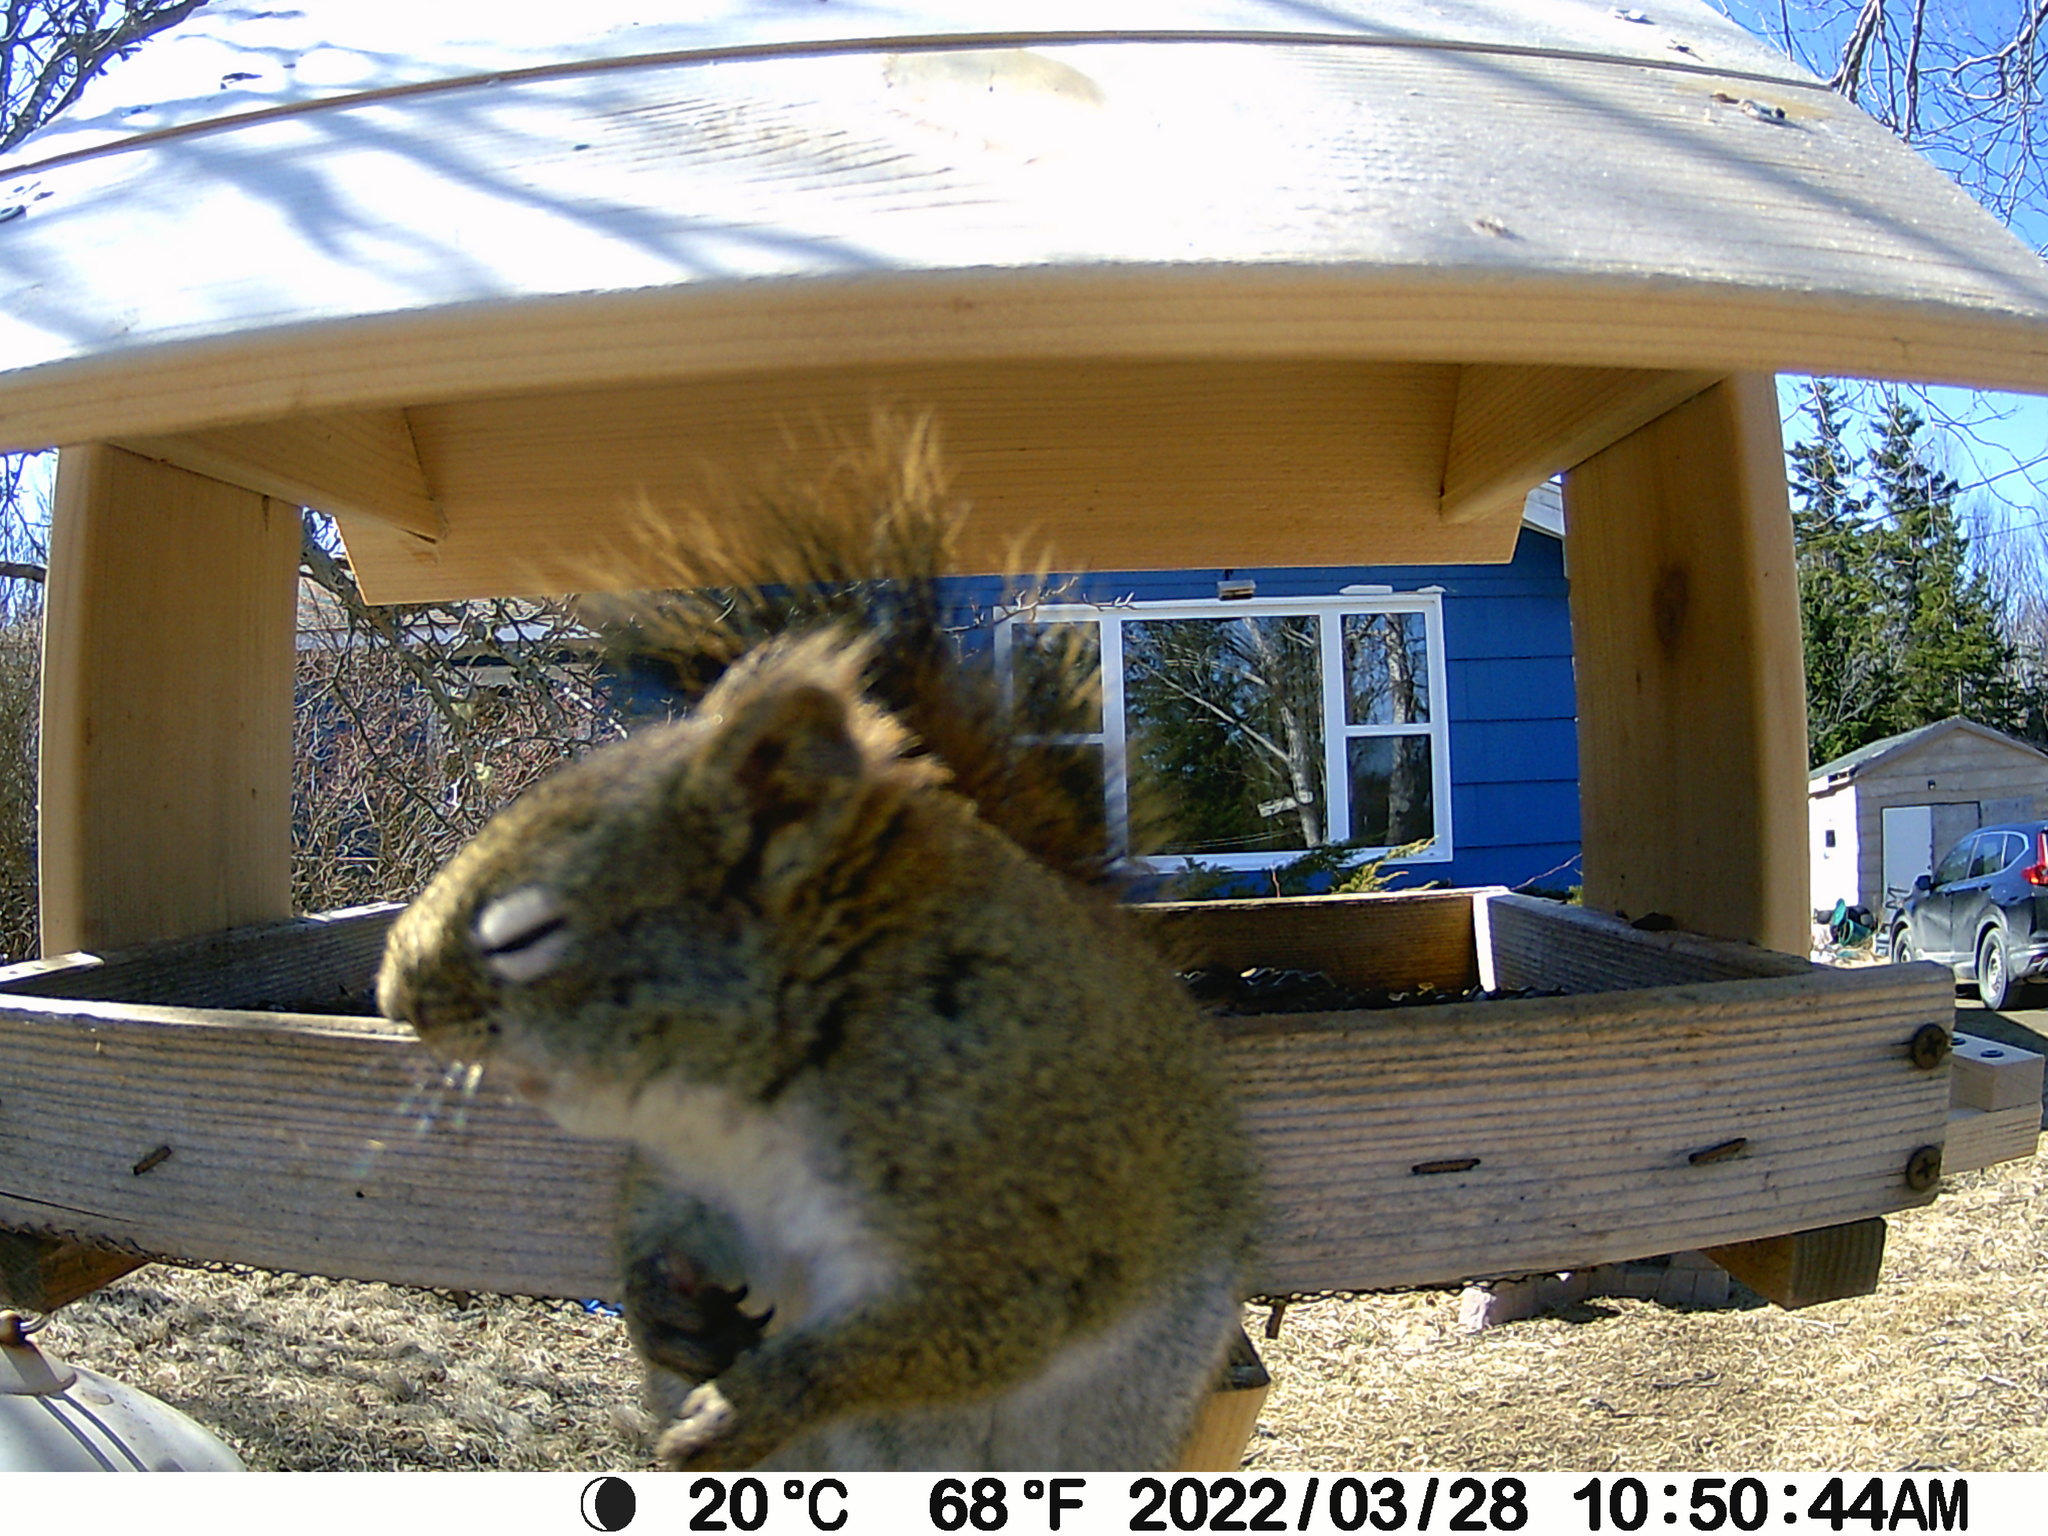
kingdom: Animalia
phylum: Chordata
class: Mammalia
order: Rodentia
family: Sciuridae
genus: Tamiasciurus
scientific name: Tamiasciurus hudsonicus
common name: Red squirrel
